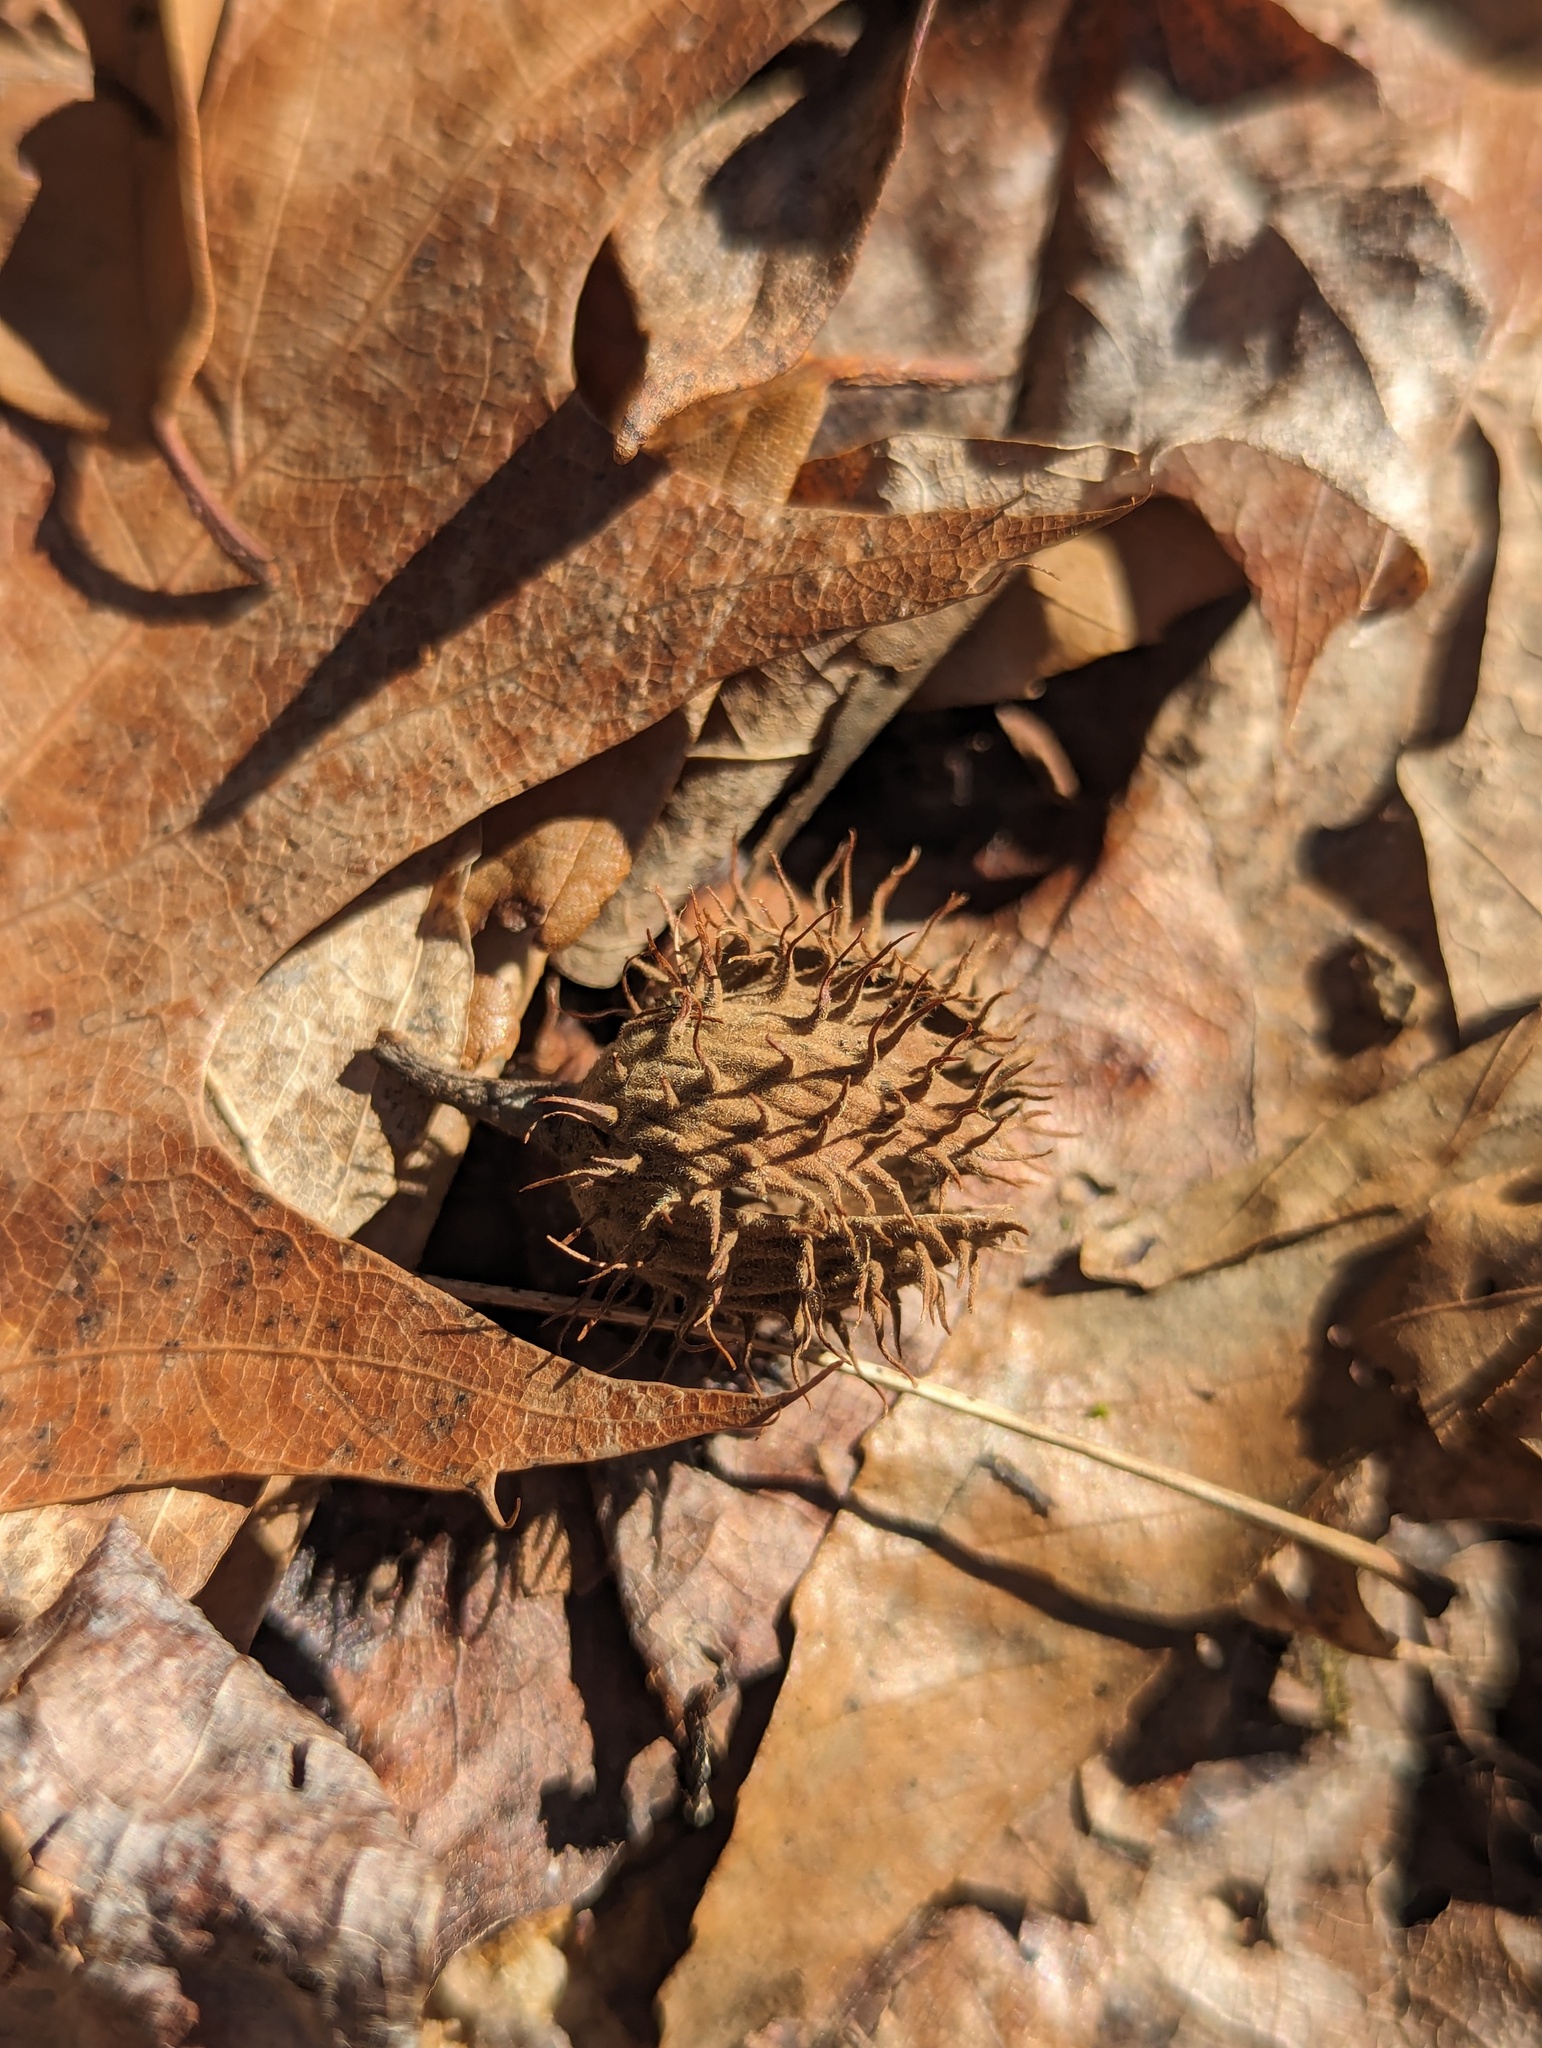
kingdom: Plantae
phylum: Tracheophyta
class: Magnoliopsida
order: Fagales
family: Fagaceae
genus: Fagus
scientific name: Fagus grandifolia
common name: American beech
